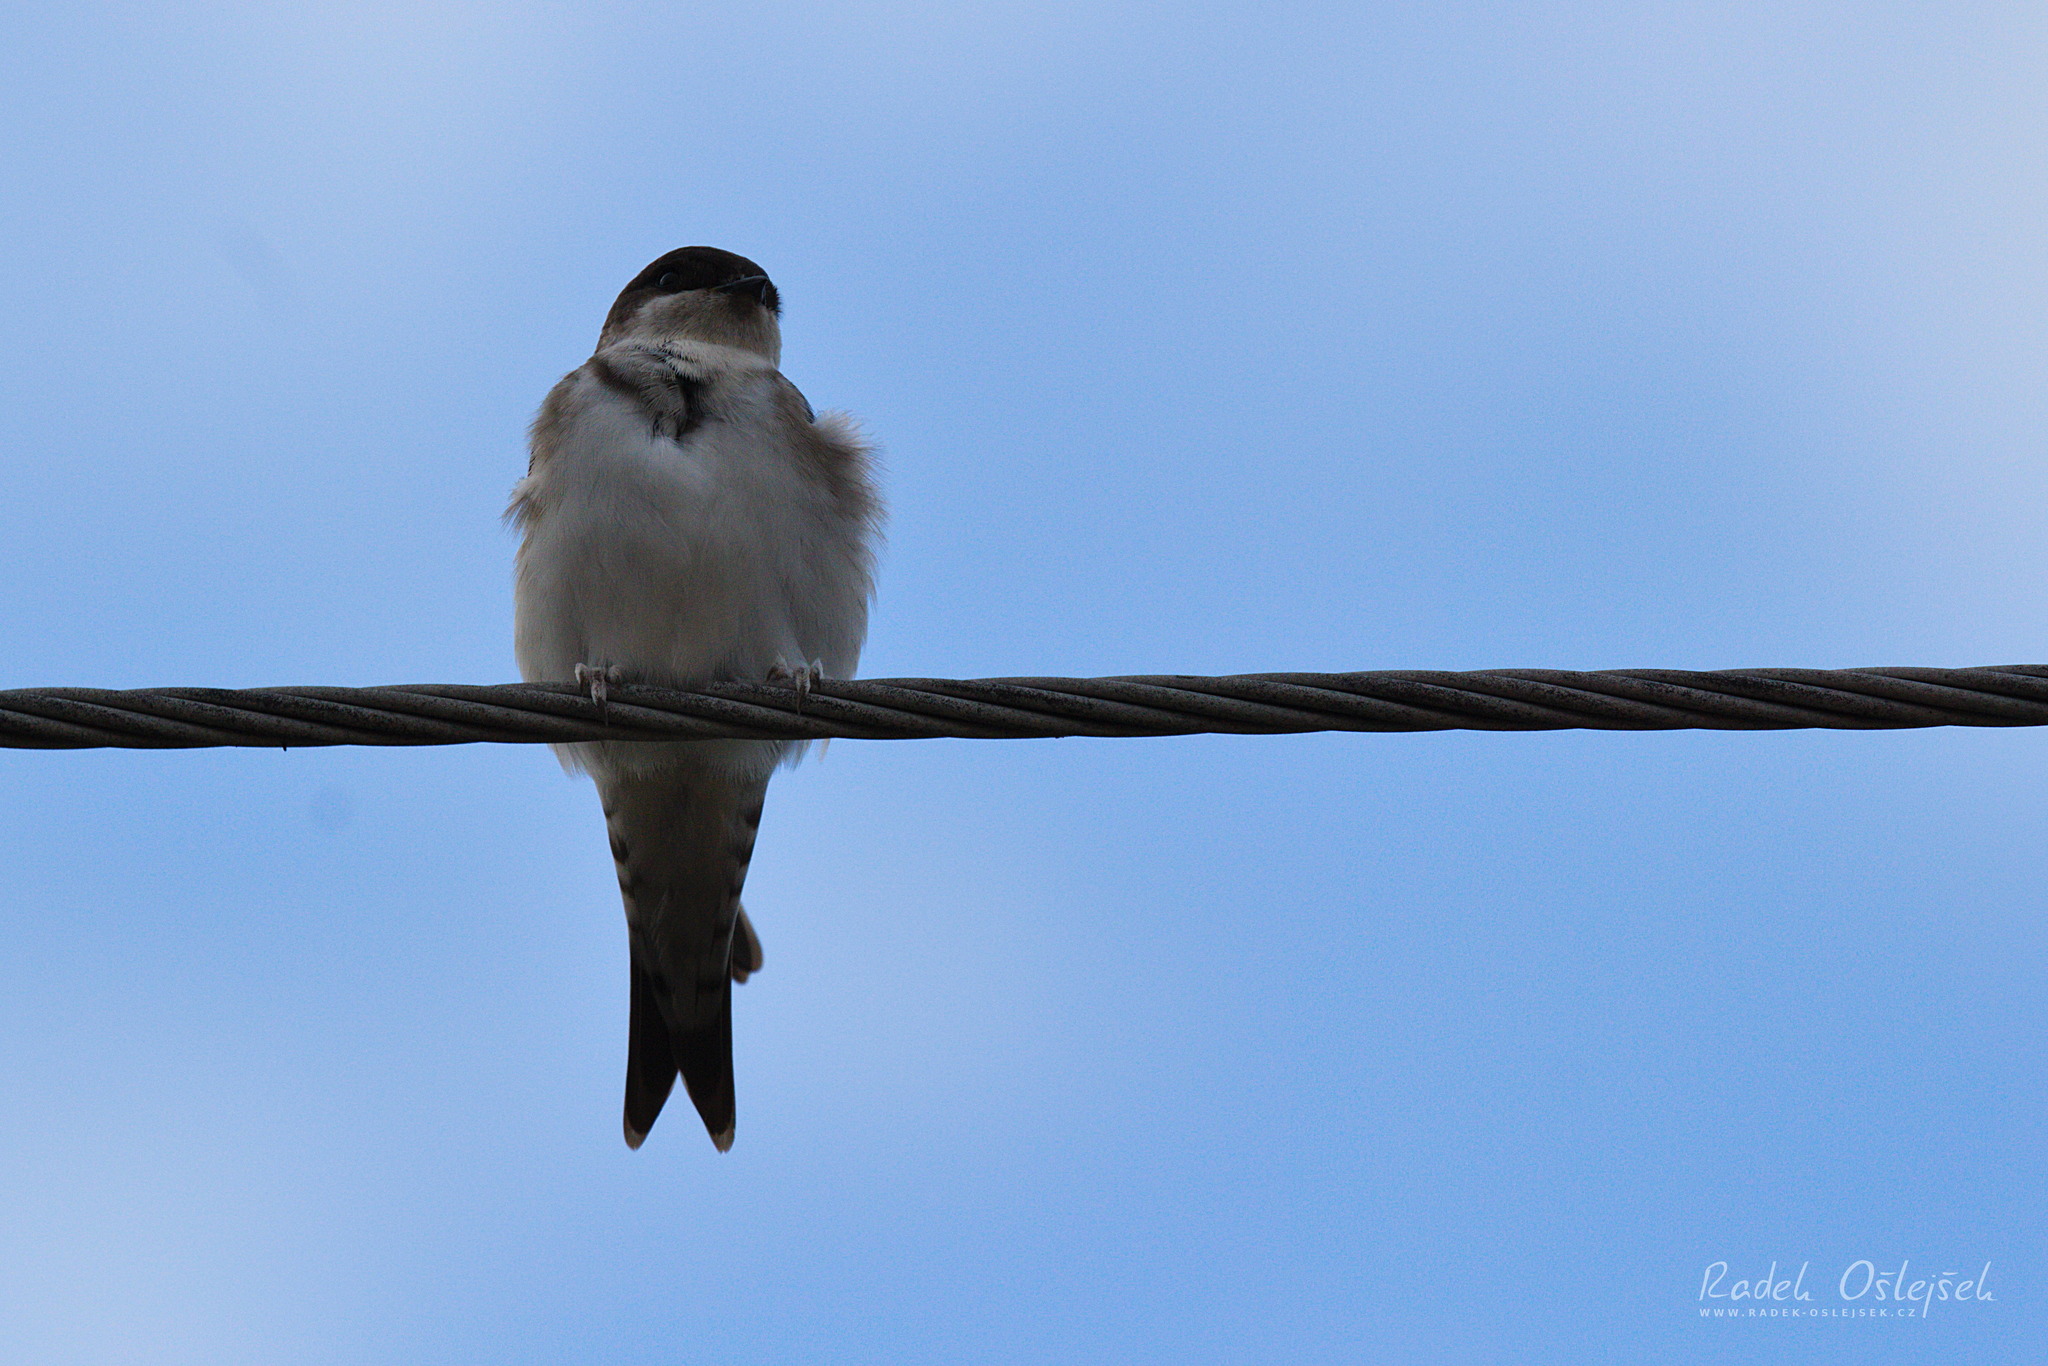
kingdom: Animalia
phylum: Chordata
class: Aves
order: Passeriformes
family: Hirundinidae
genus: Delichon
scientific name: Delichon urbicum
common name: Common house martin
